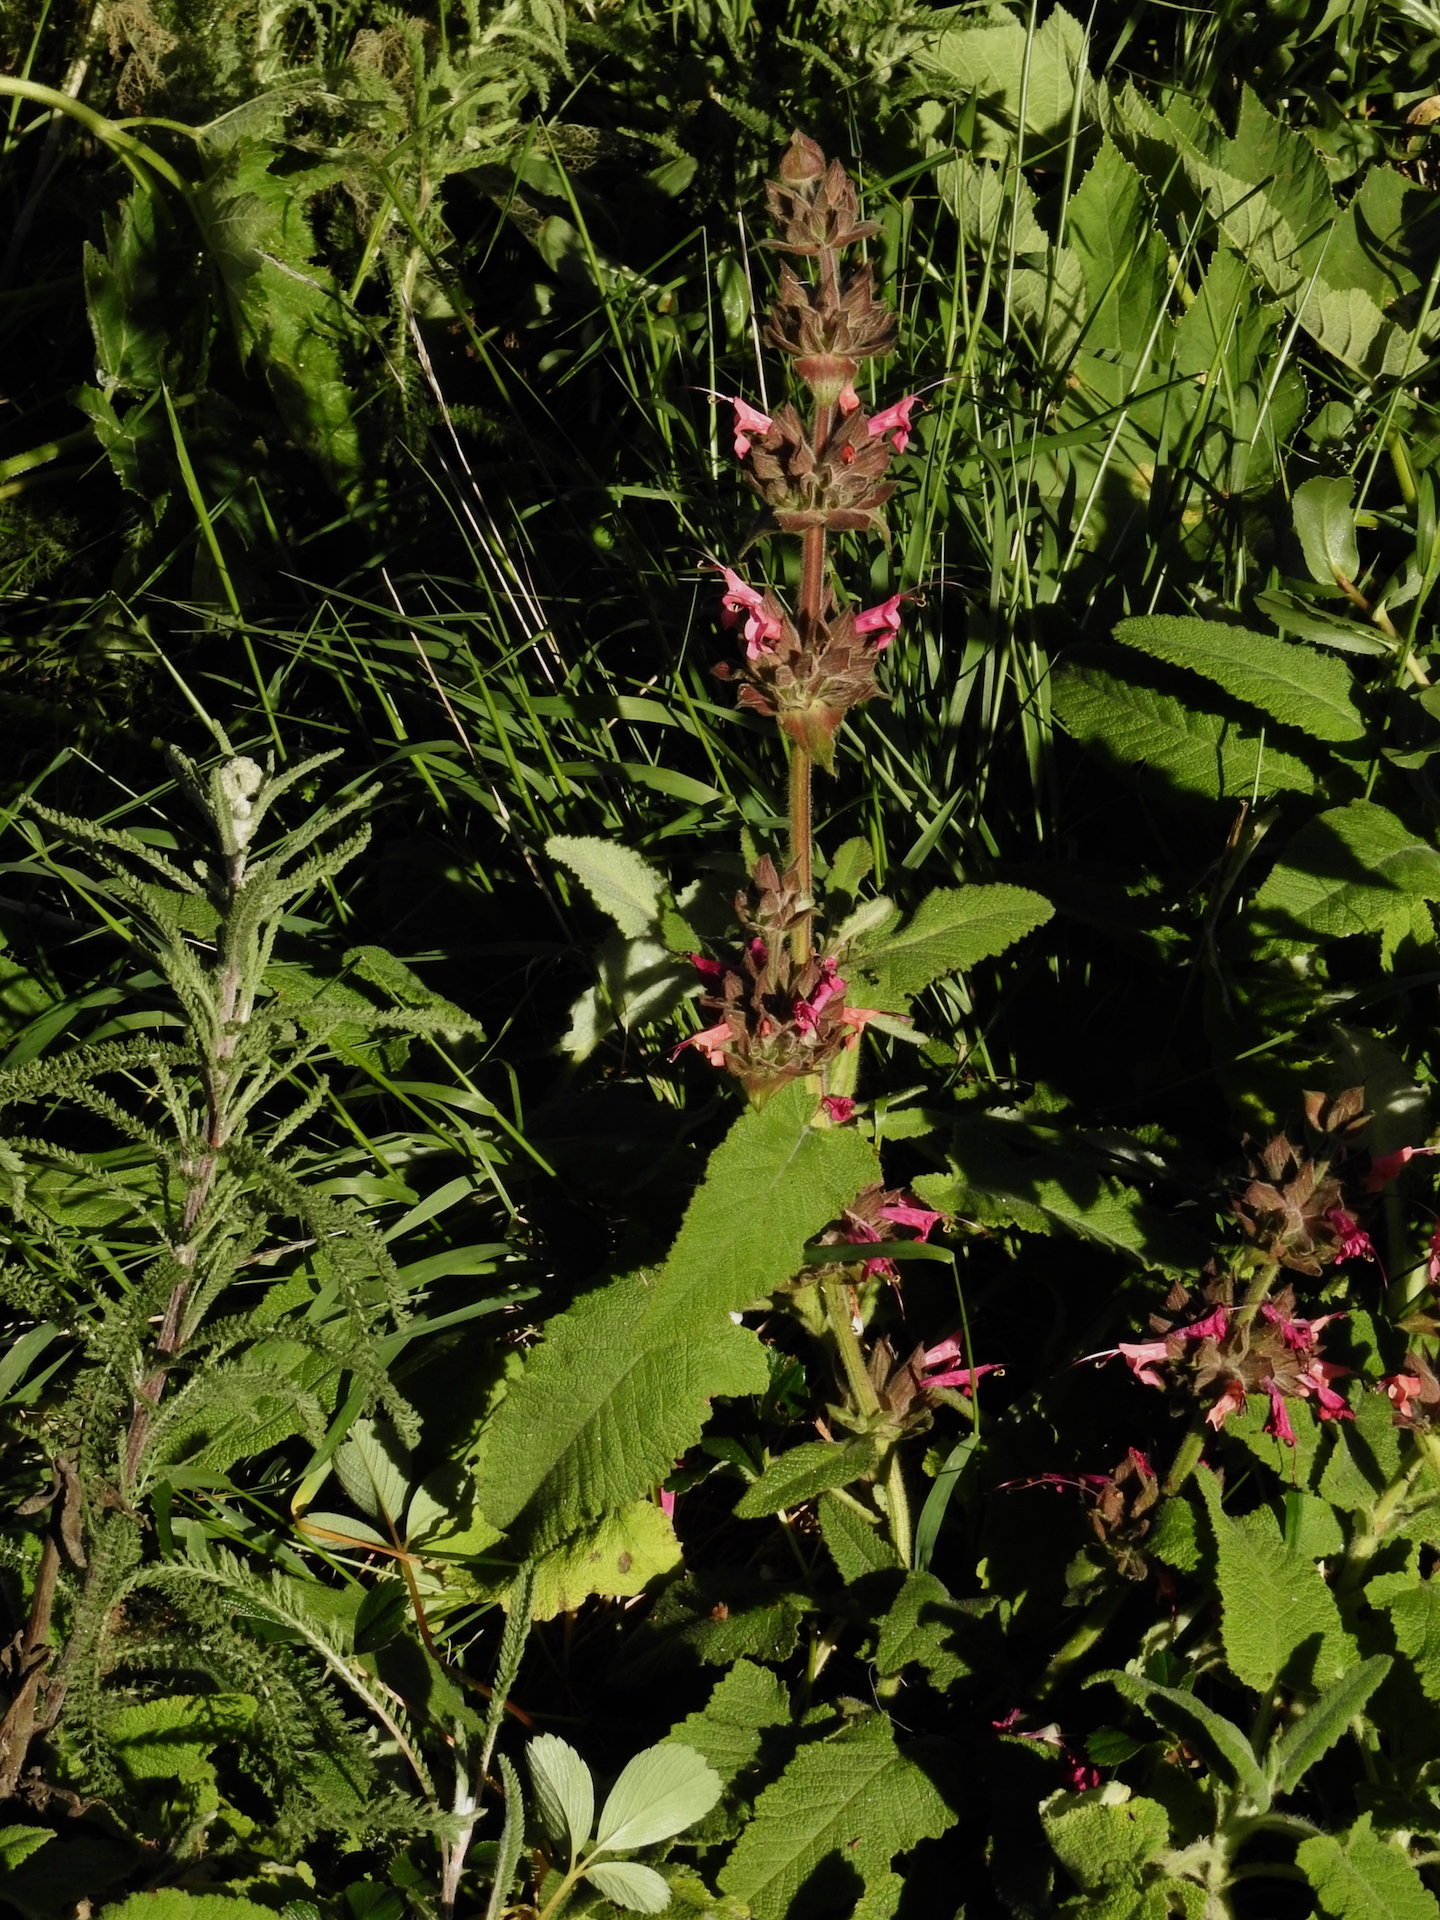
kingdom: Plantae
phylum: Tracheophyta
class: Magnoliopsida
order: Lamiales
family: Lamiaceae
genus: Salvia
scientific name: Salvia spathacea
